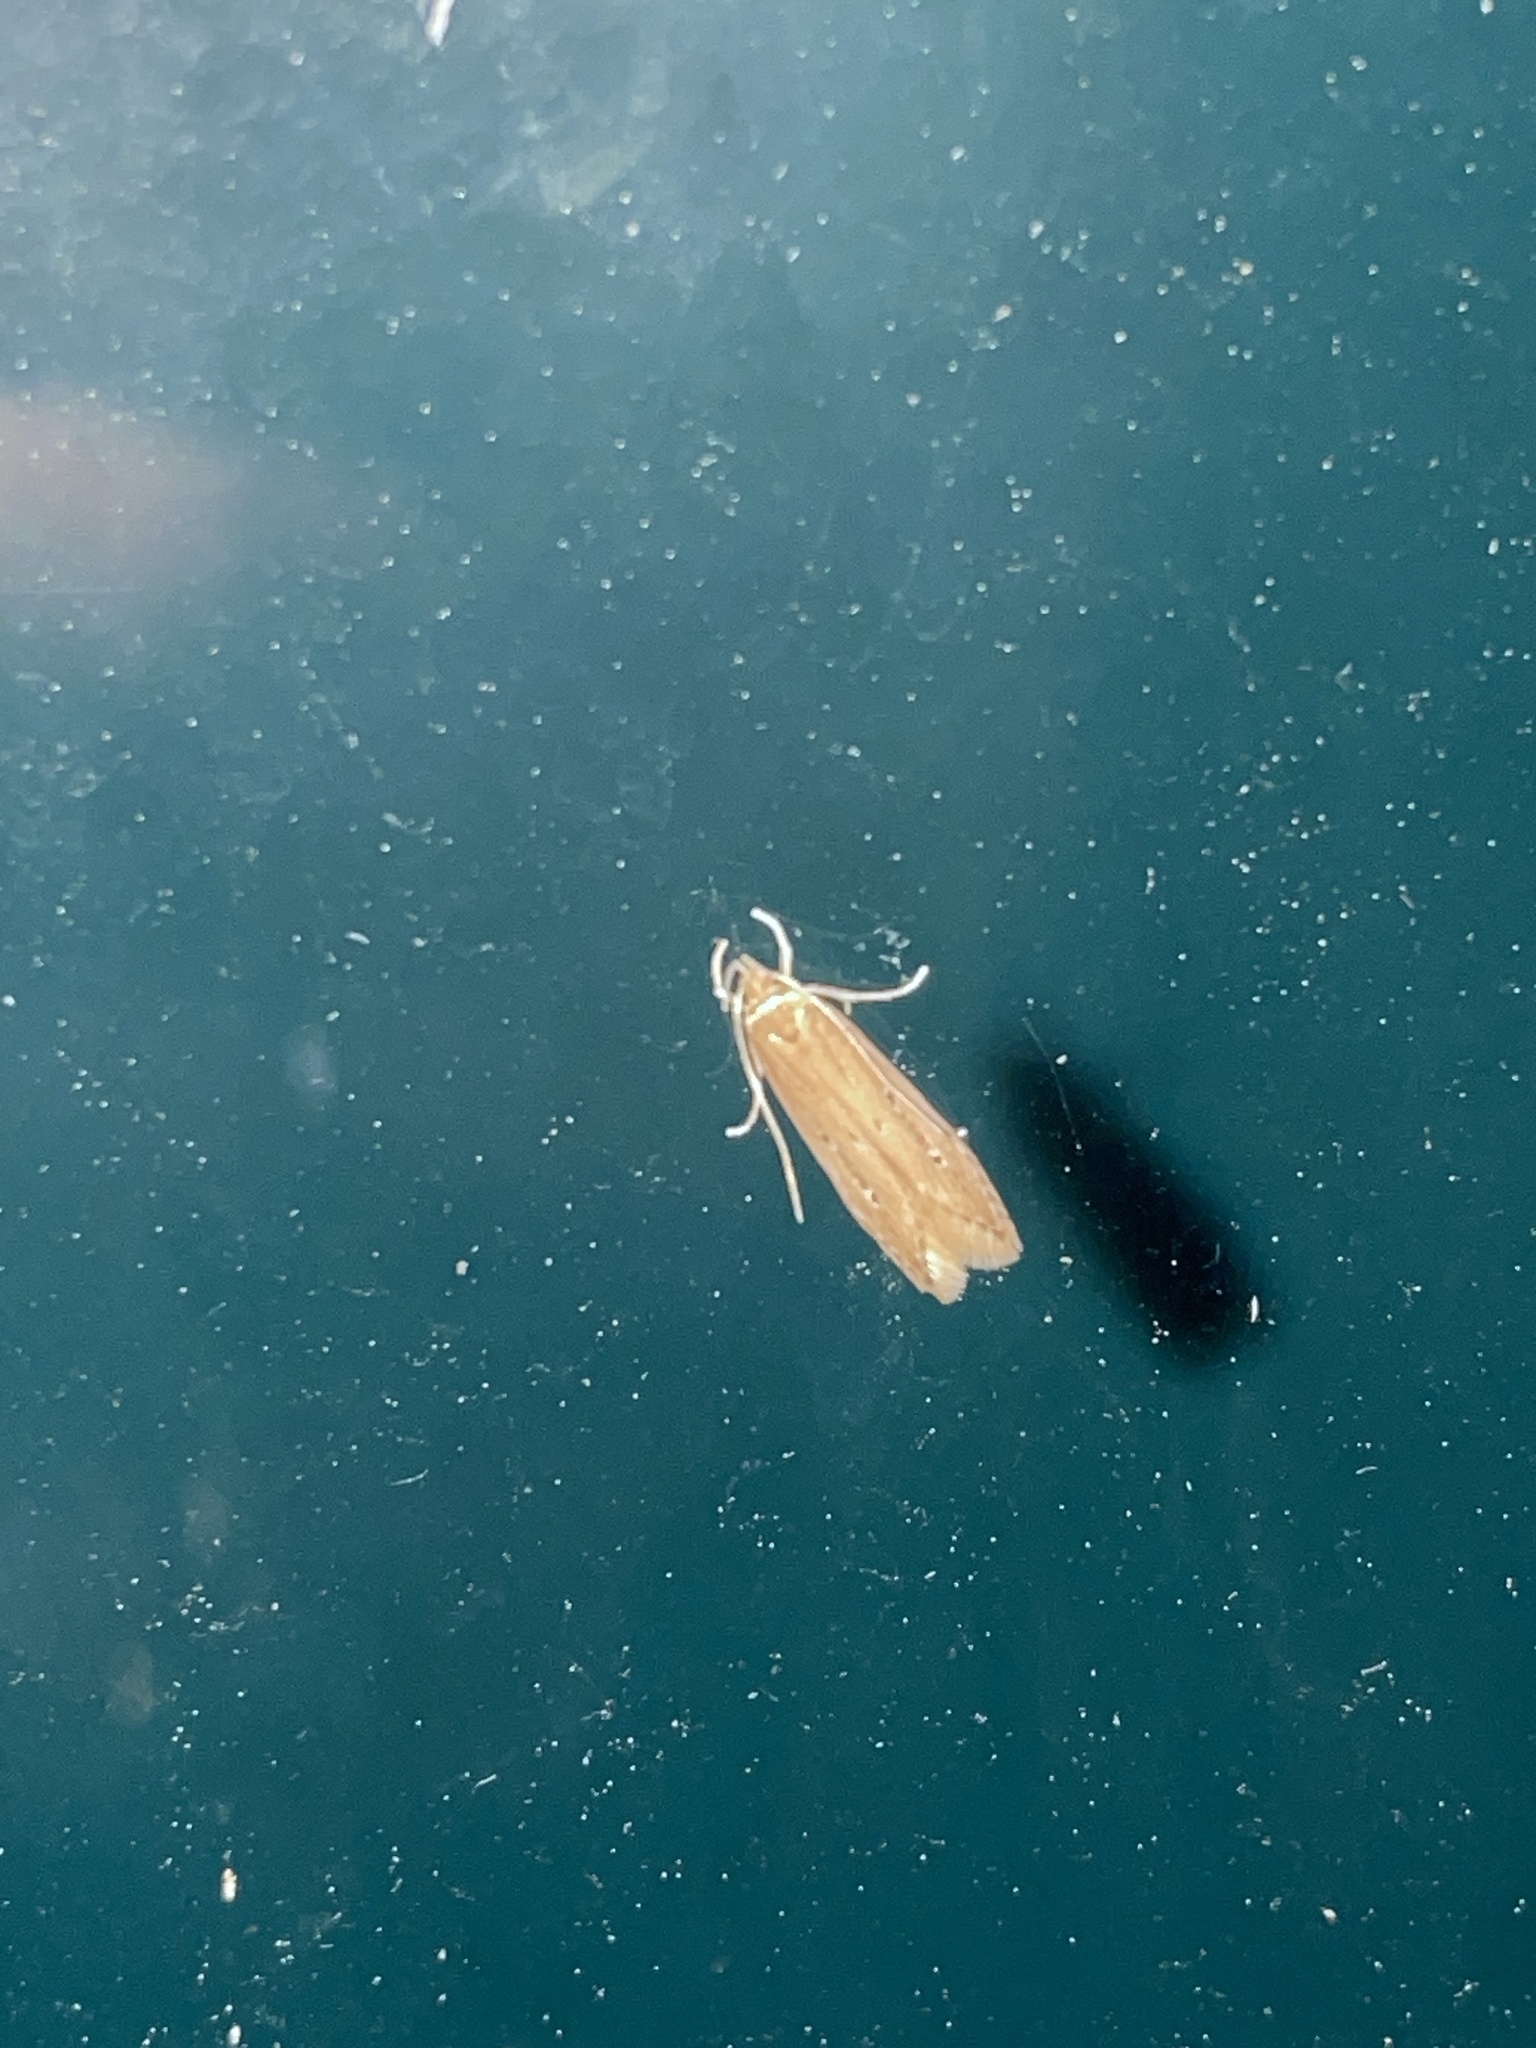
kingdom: Animalia
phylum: Arthropoda
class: Insecta
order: Lepidoptera
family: Cosmopterigidae
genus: Limnaecia
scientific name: Limnaecia phragmitella
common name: Bulrush cosmet
